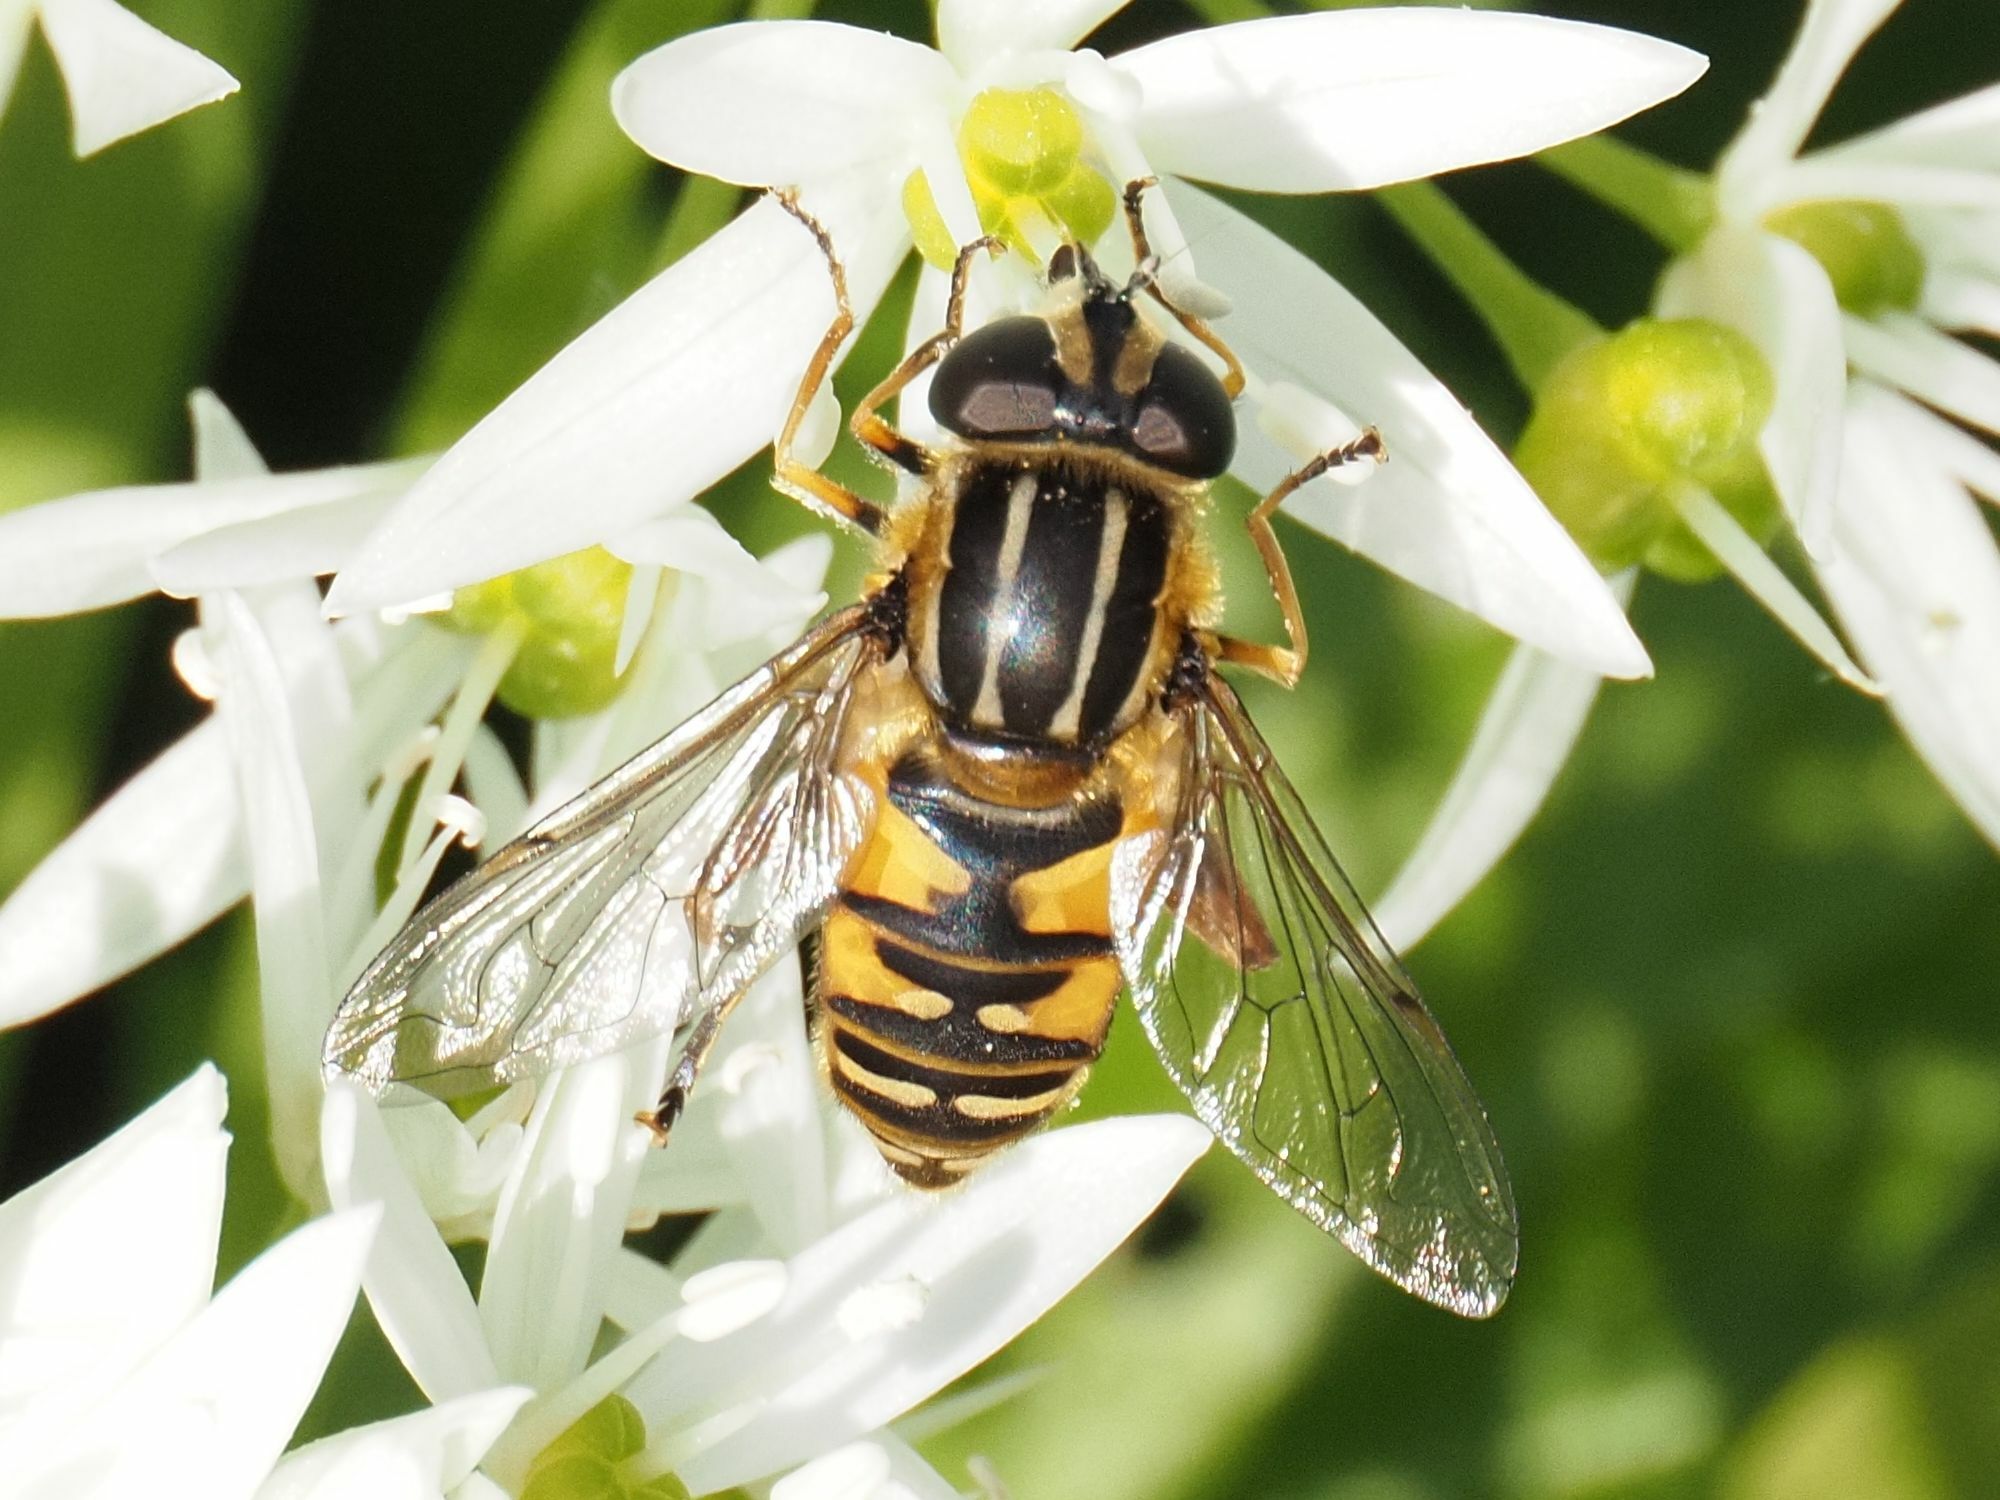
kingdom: Animalia
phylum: Arthropoda
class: Insecta
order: Diptera
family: Syrphidae
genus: Helophilus
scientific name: Helophilus pendulus
